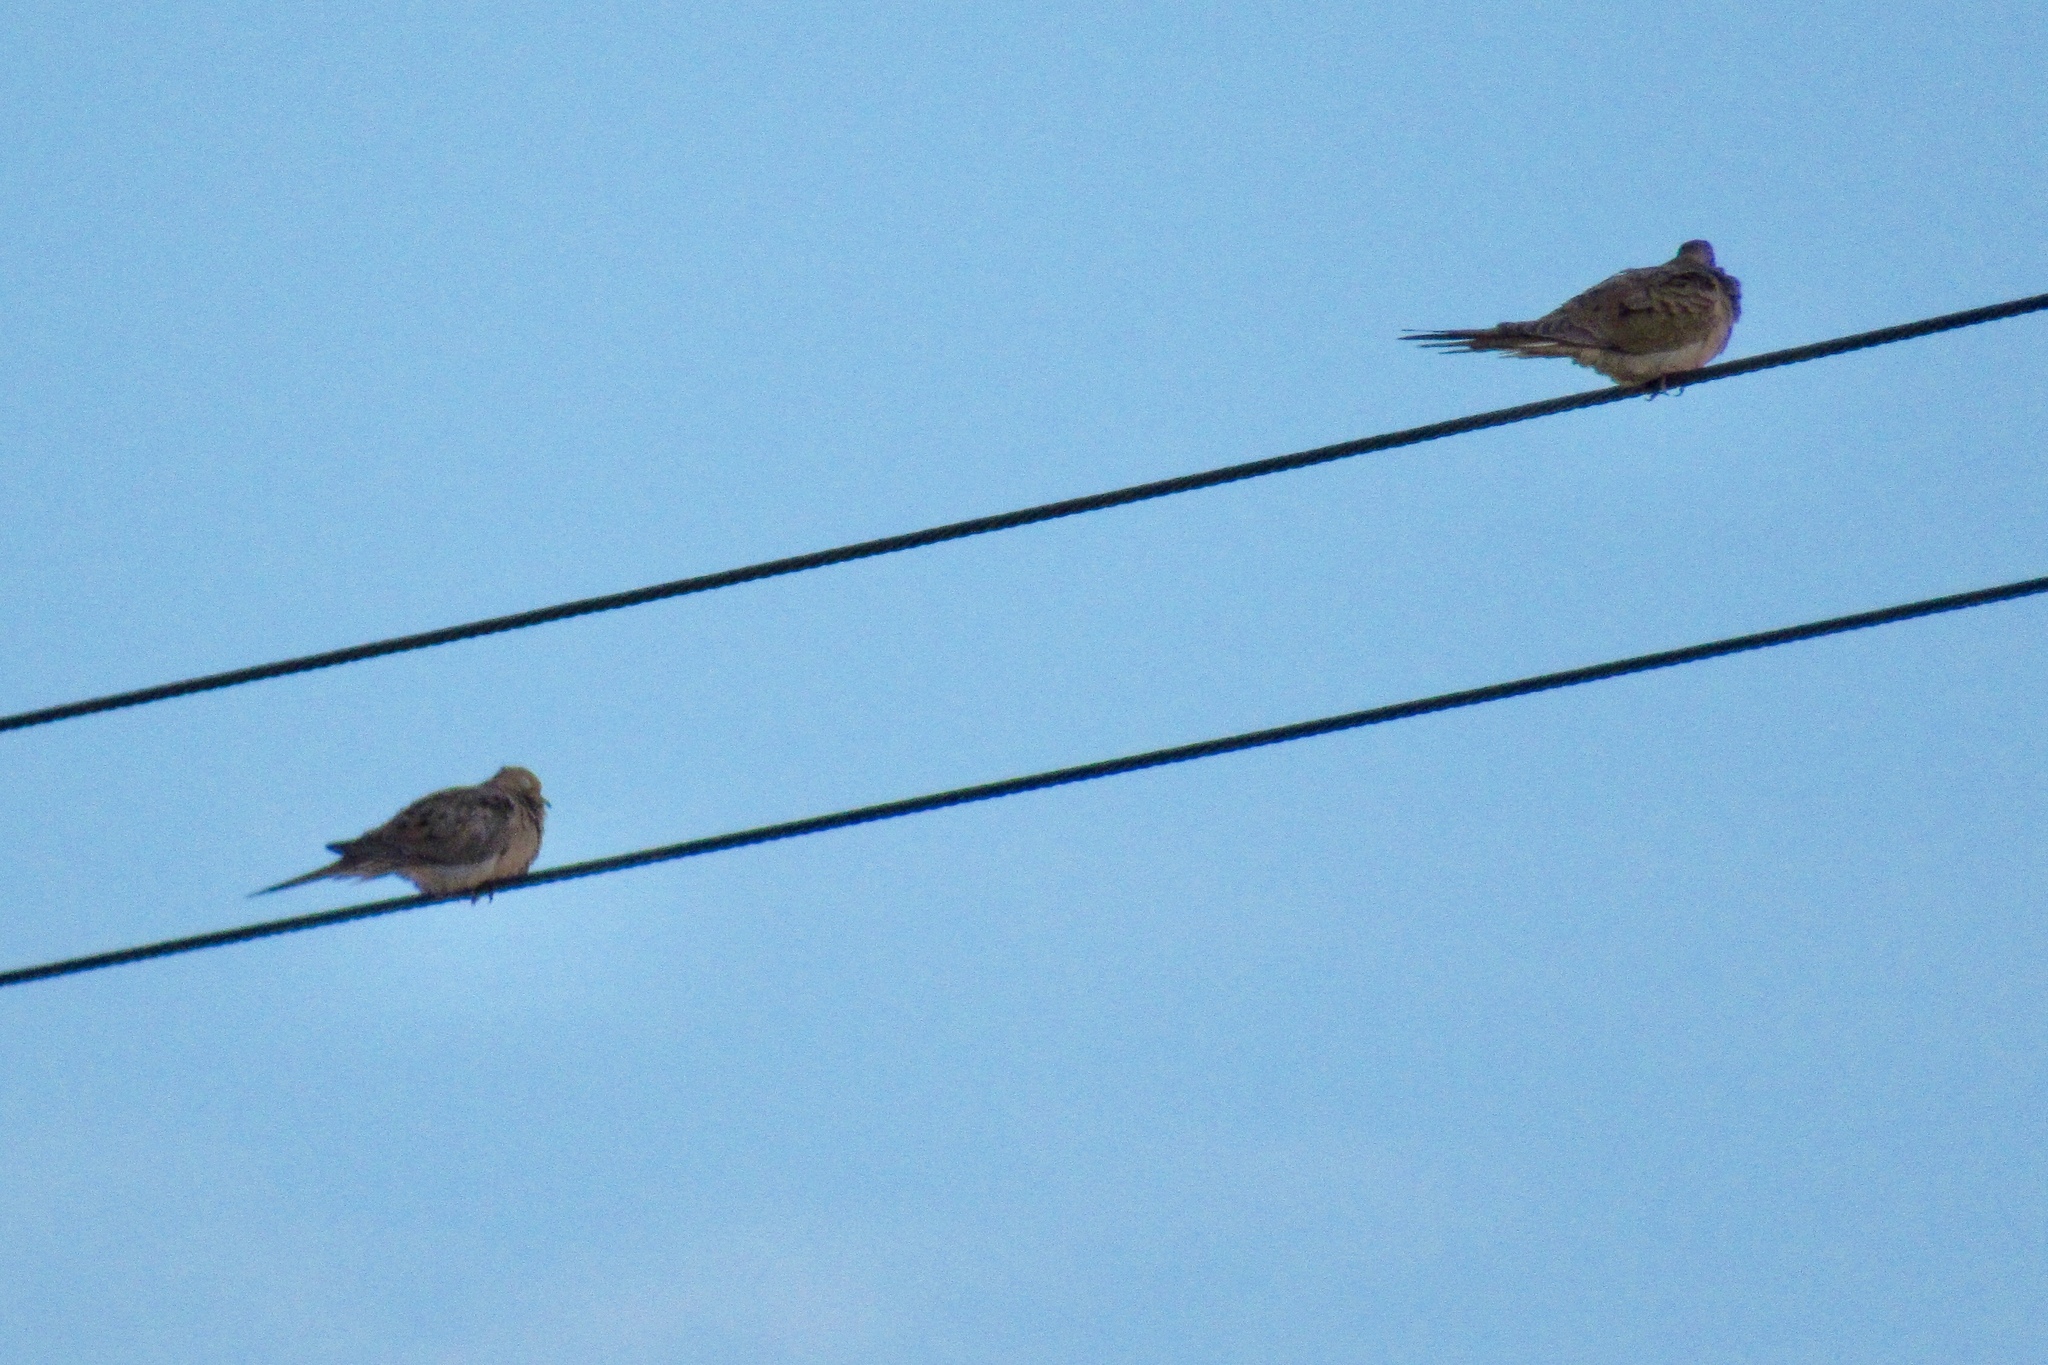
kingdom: Animalia
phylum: Chordata
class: Aves
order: Columbiformes
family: Columbidae
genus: Zenaida
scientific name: Zenaida macroura
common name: Mourning dove
